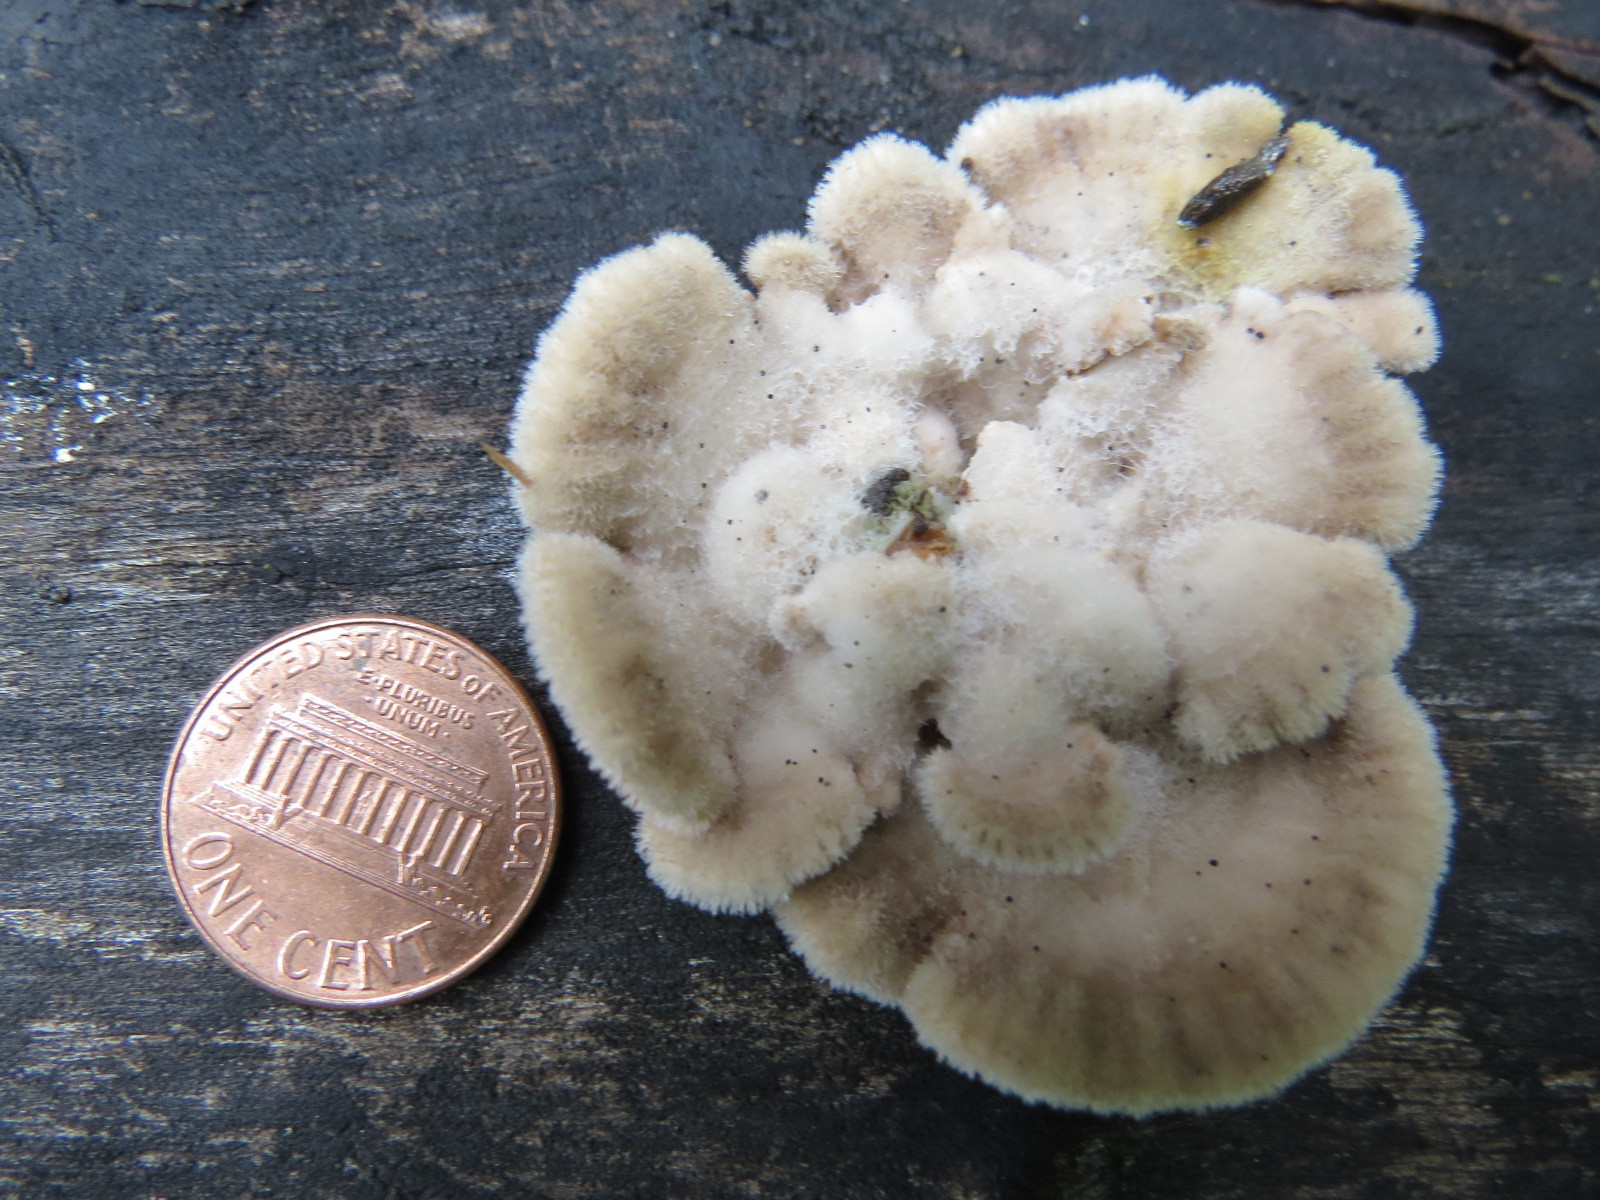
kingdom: Fungi
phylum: Basidiomycota
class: Agaricomycetes
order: Agaricales
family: Schizophyllaceae
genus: Schizophyllum
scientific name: Schizophyllum commune
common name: Common porecrust
